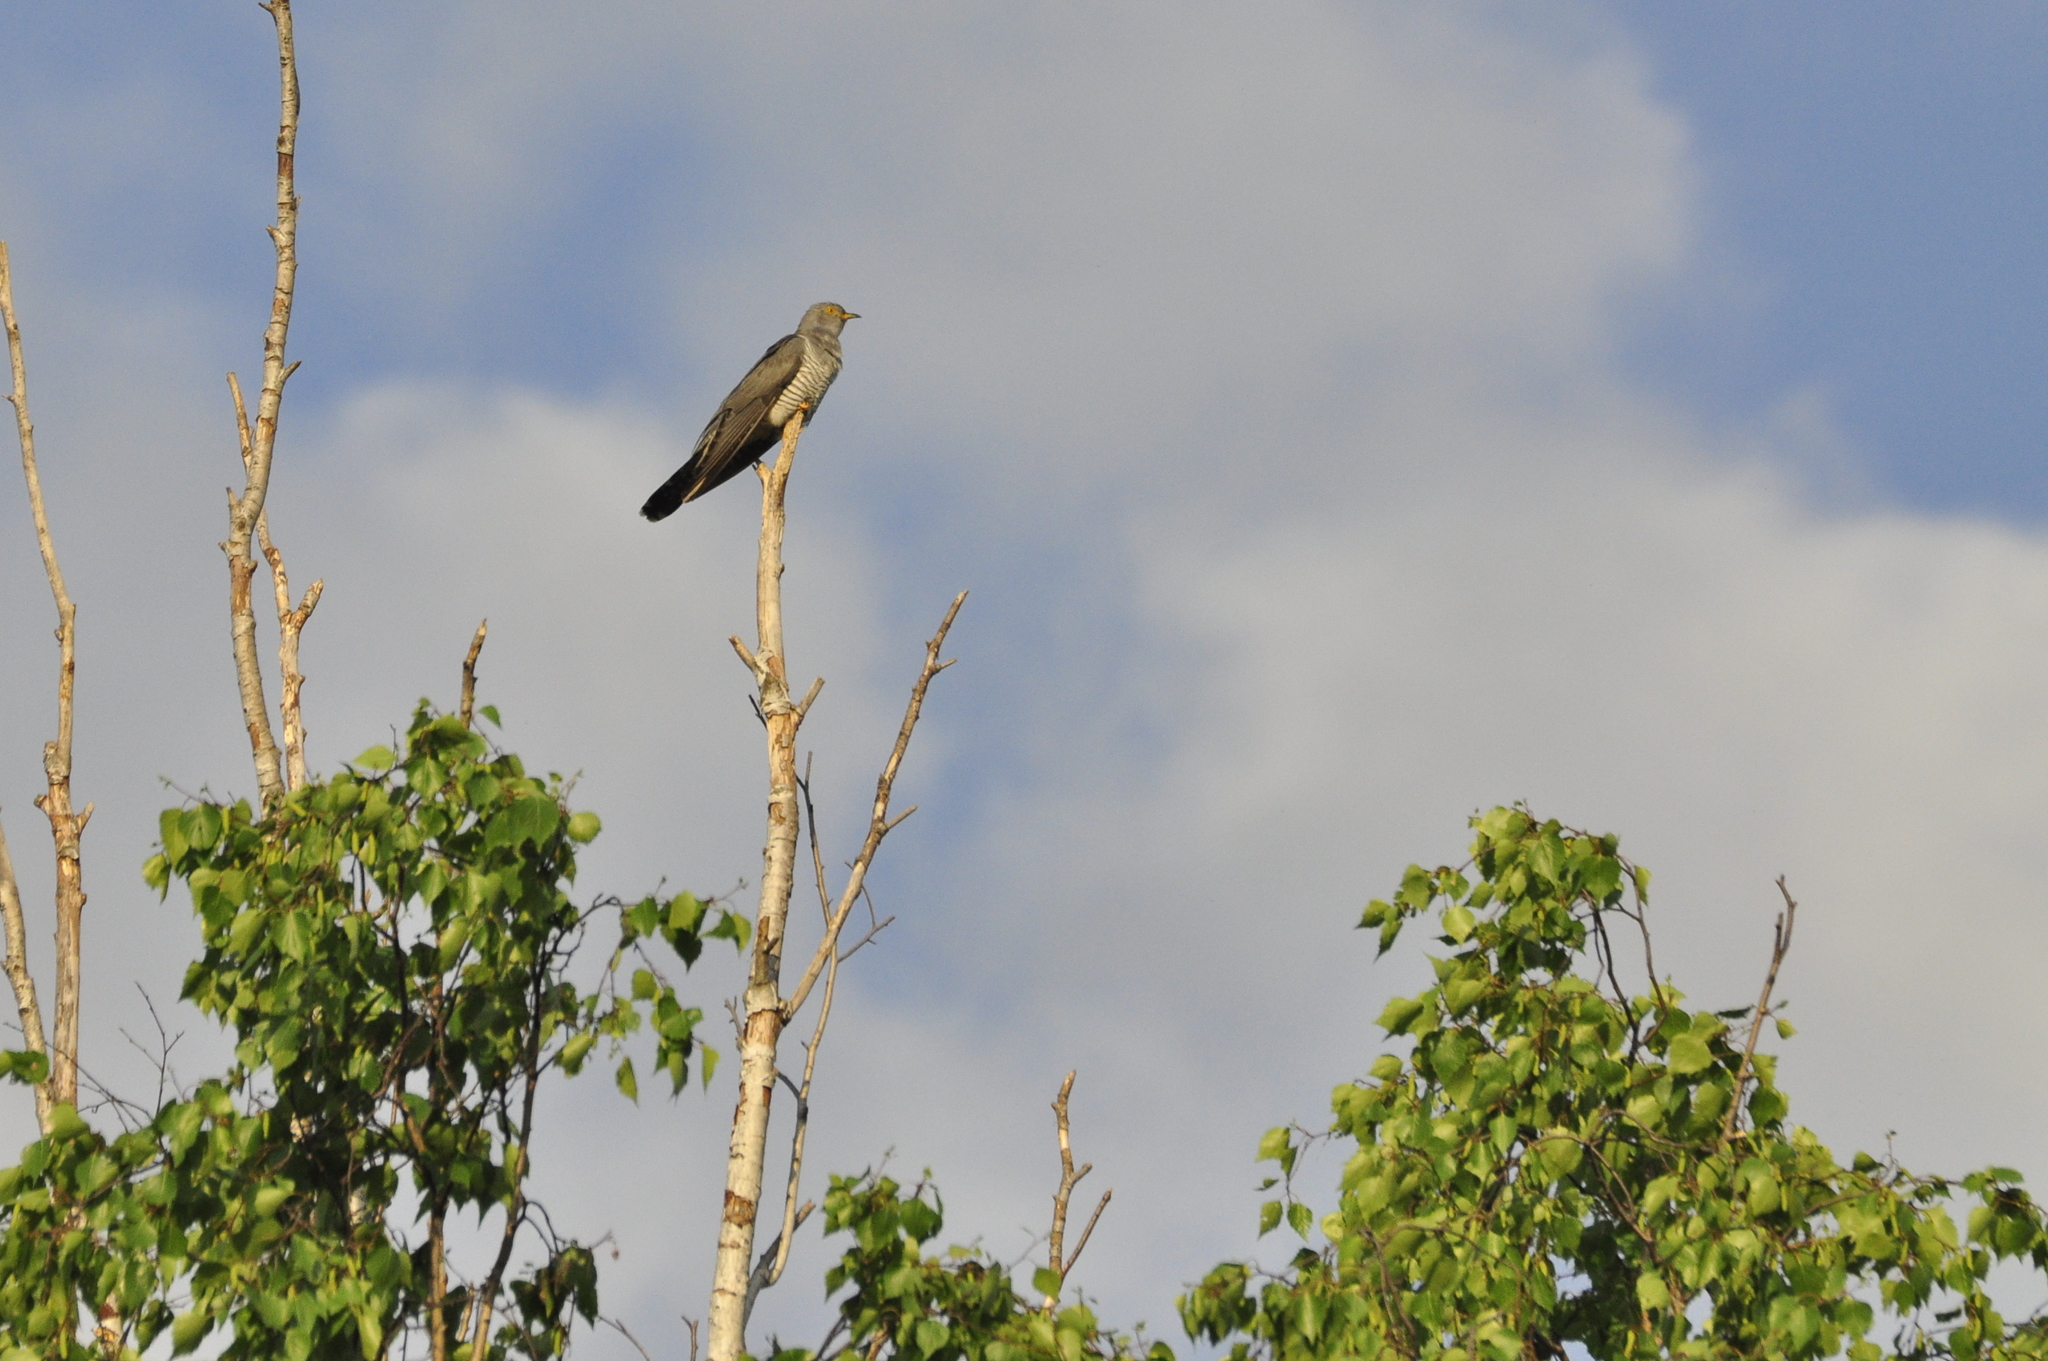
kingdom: Animalia
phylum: Chordata
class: Aves
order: Cuculiformes
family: Cuculidae
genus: Cuculus
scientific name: Cuculus canorus
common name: Common cuckoo
